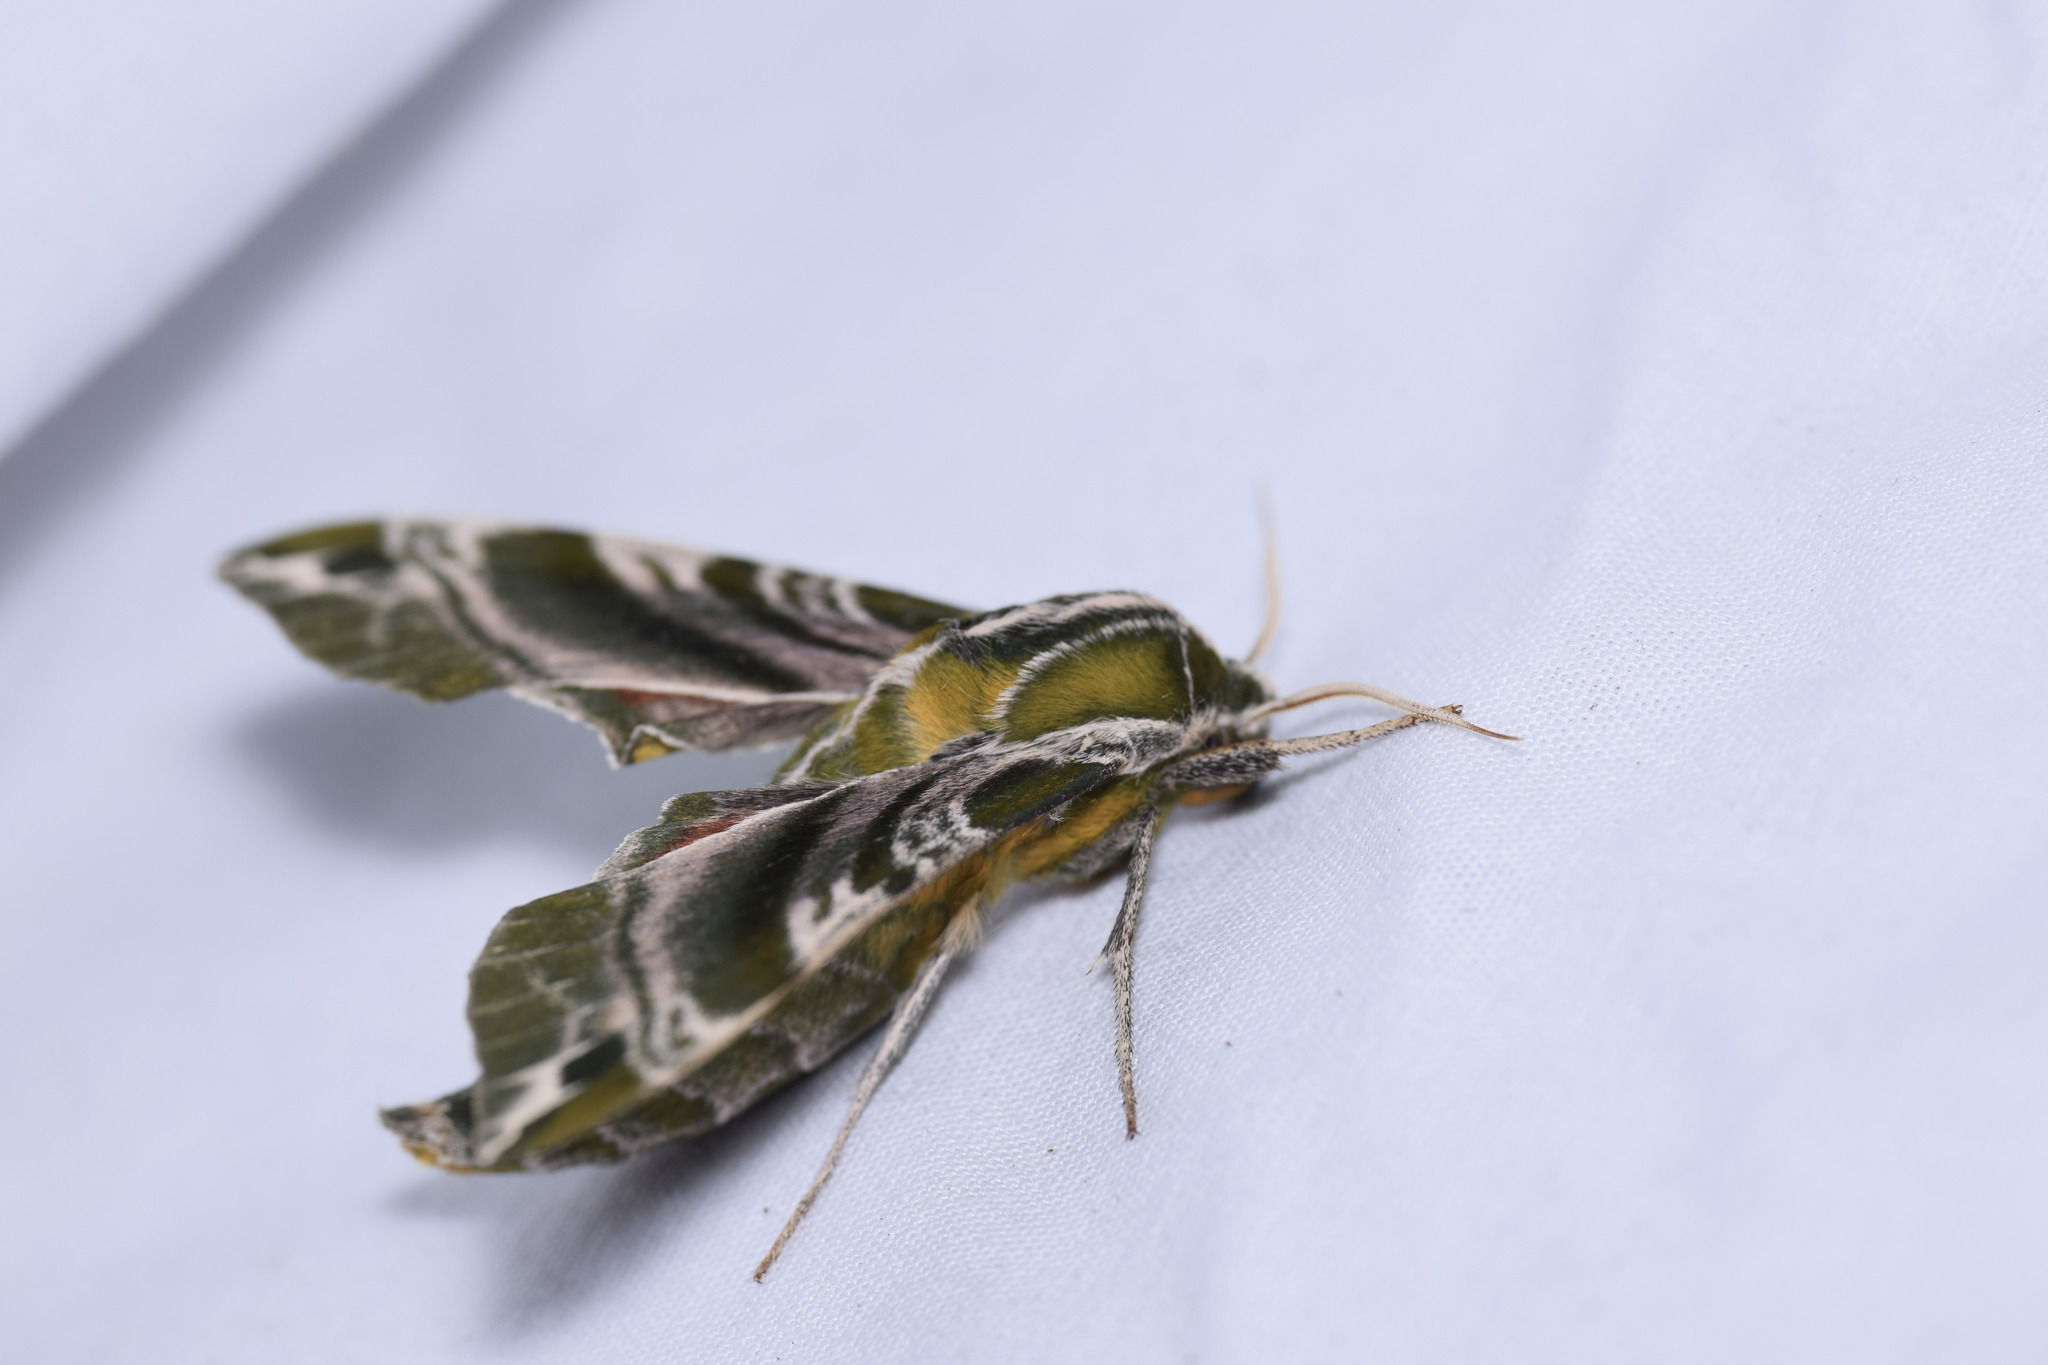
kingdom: Animalia
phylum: Arthropoda
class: Insecta
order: Lepidoptera
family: Sphingidae
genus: Darapsa
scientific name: Darapsa versicolor
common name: Hydrangea sphinx
